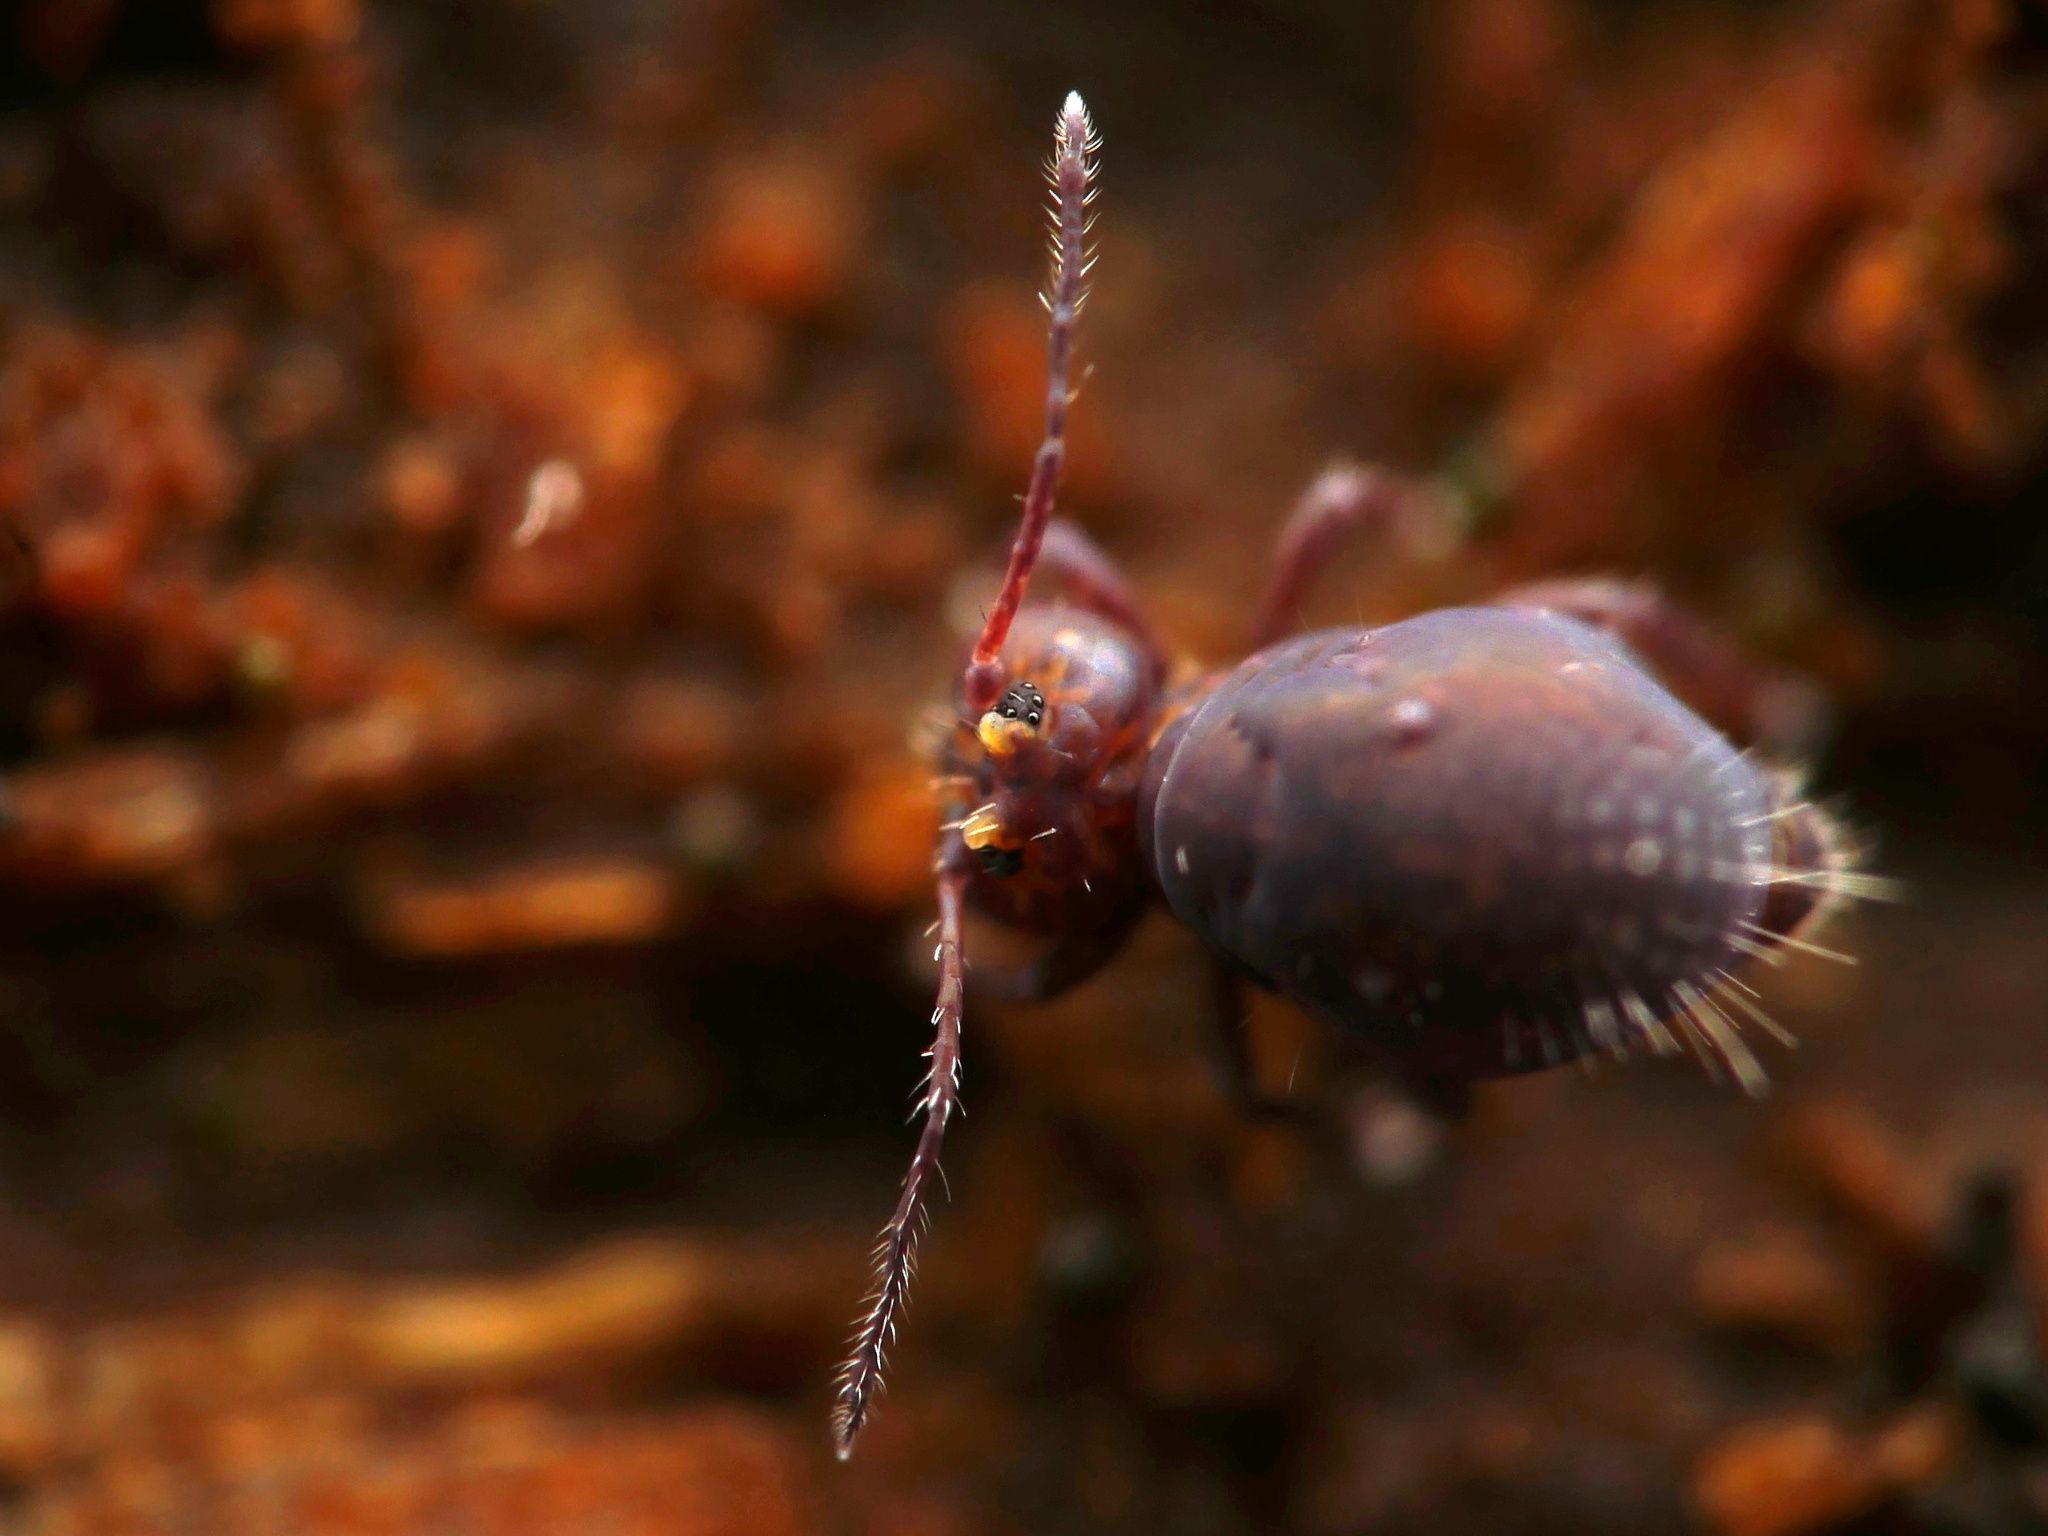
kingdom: Animalia
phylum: Arthropoda
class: Collembola
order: Symphypleona
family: Dicyrtomidae
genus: Dicyrtoma
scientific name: Dicyrtoma fusca
